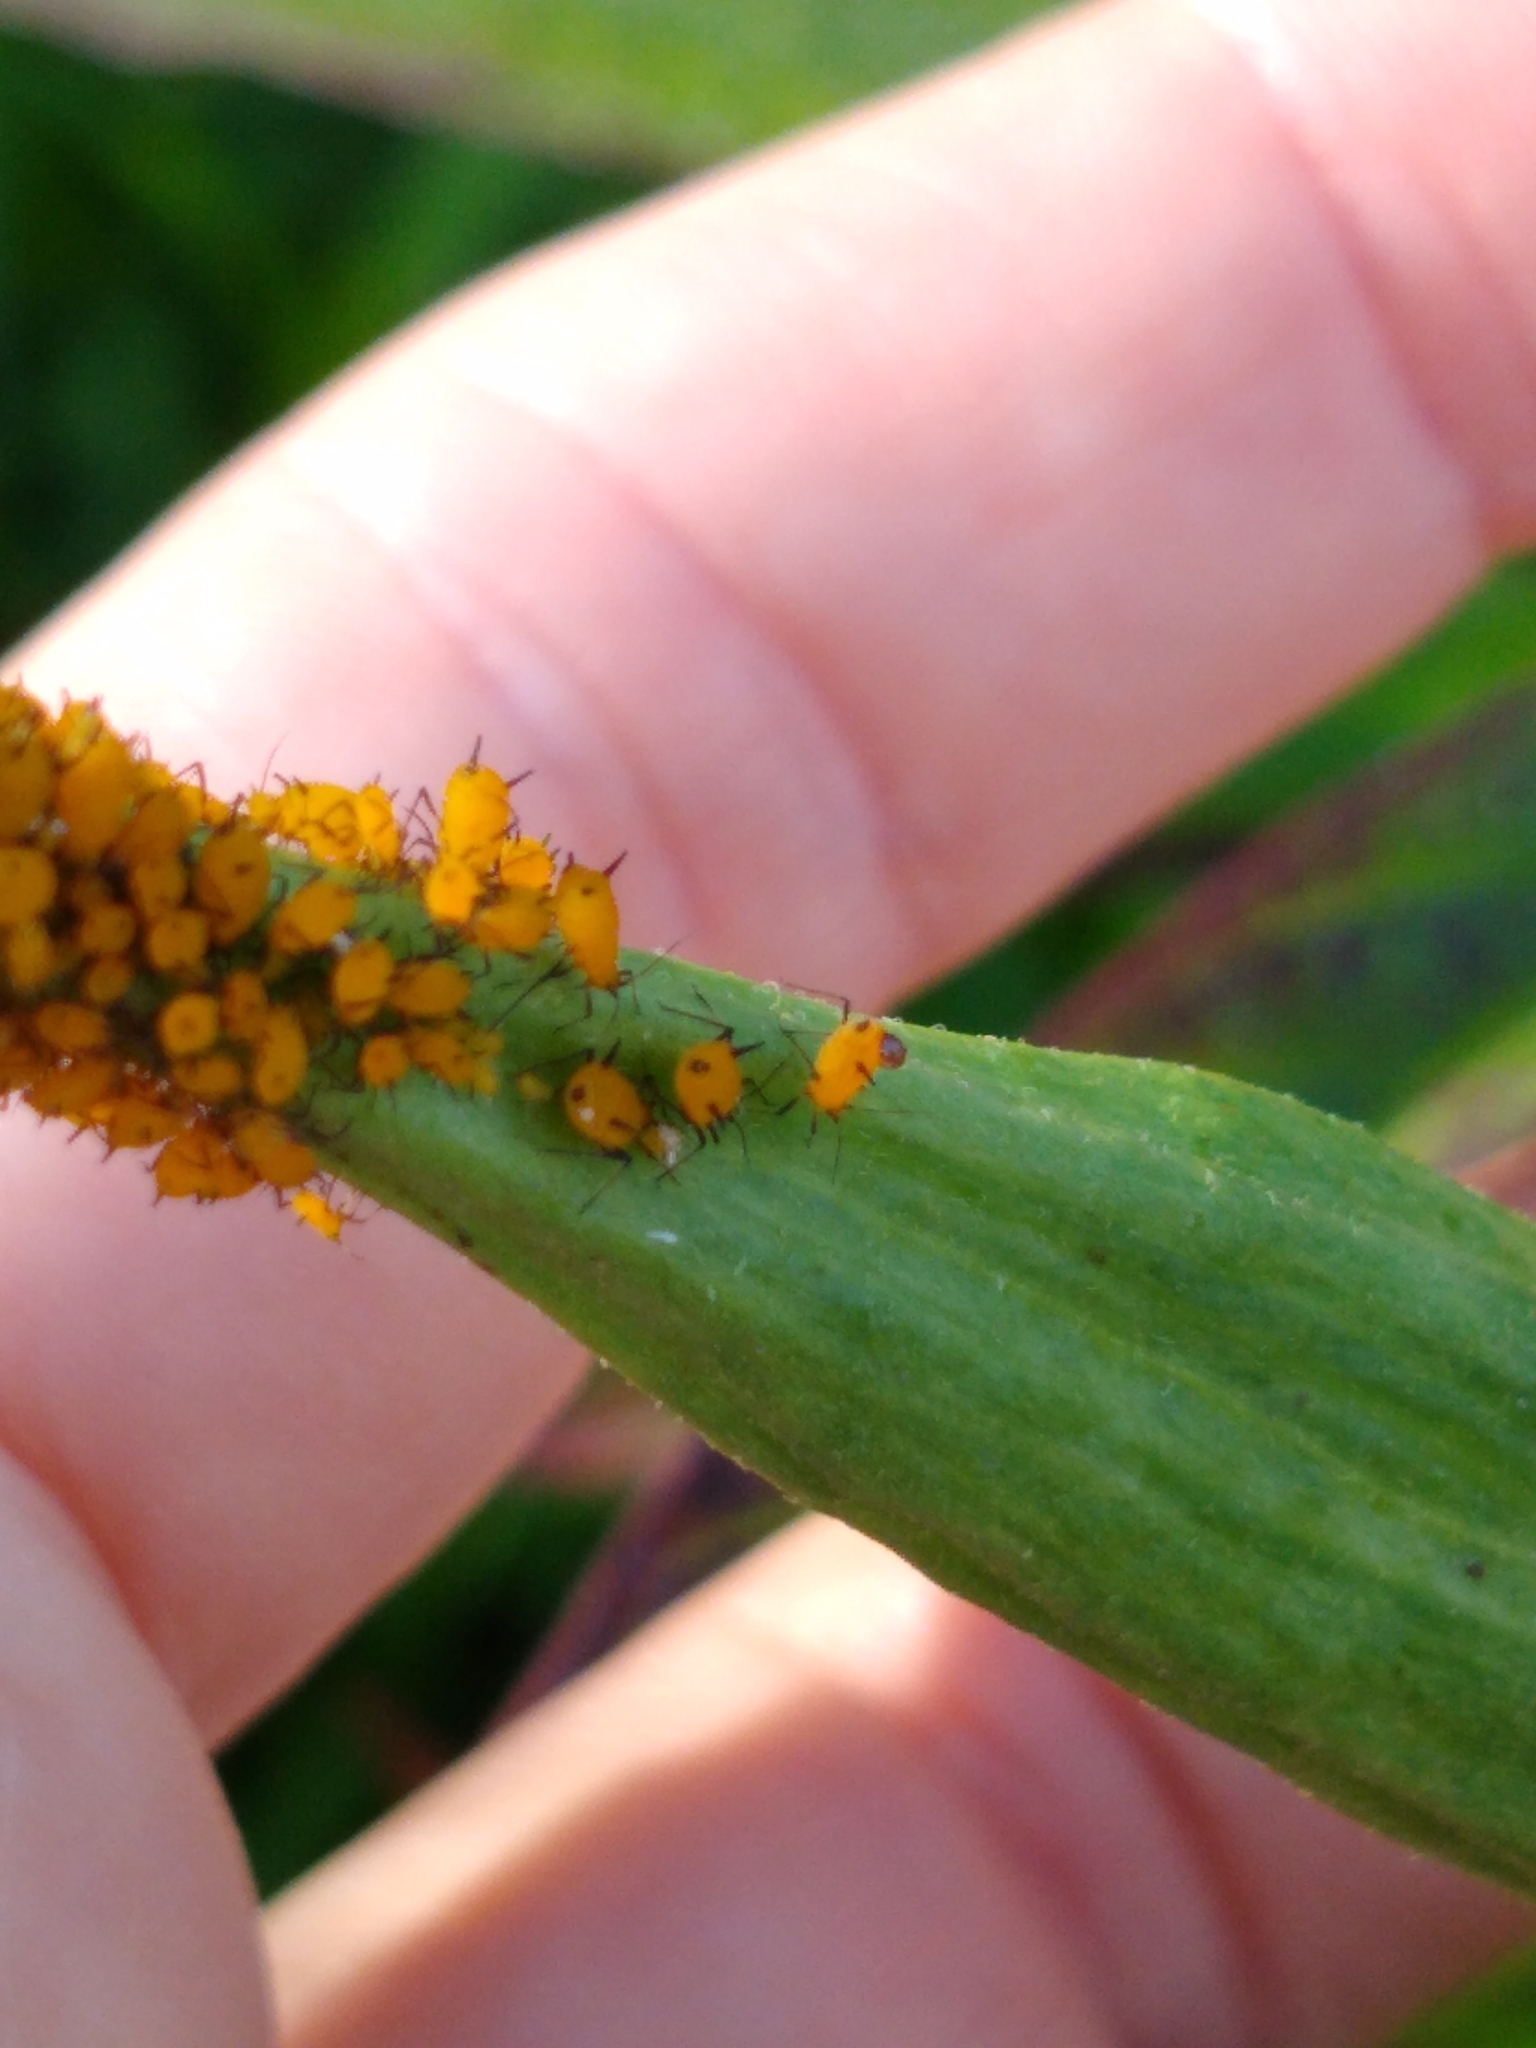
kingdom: Animalia
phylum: Arthropoda
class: Insecta
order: Hemiptera
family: Aphididae
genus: Aphis
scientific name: Aphis nerii
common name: Oleander aphid
